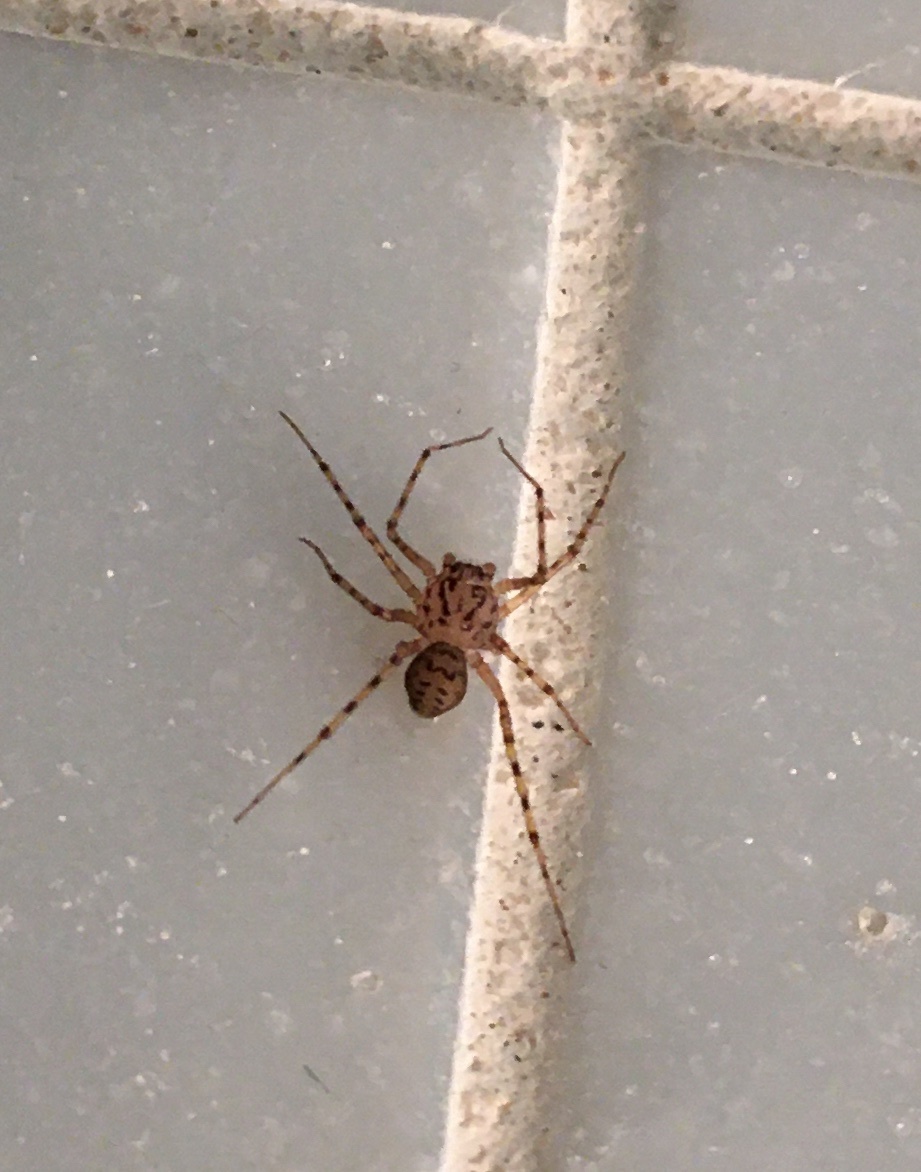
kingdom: Animalia
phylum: Arthropoda
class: Arachnida
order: Araneae
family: Scytodidae
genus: Scytodes
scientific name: Scytodes thoracica
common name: Spitting spider
